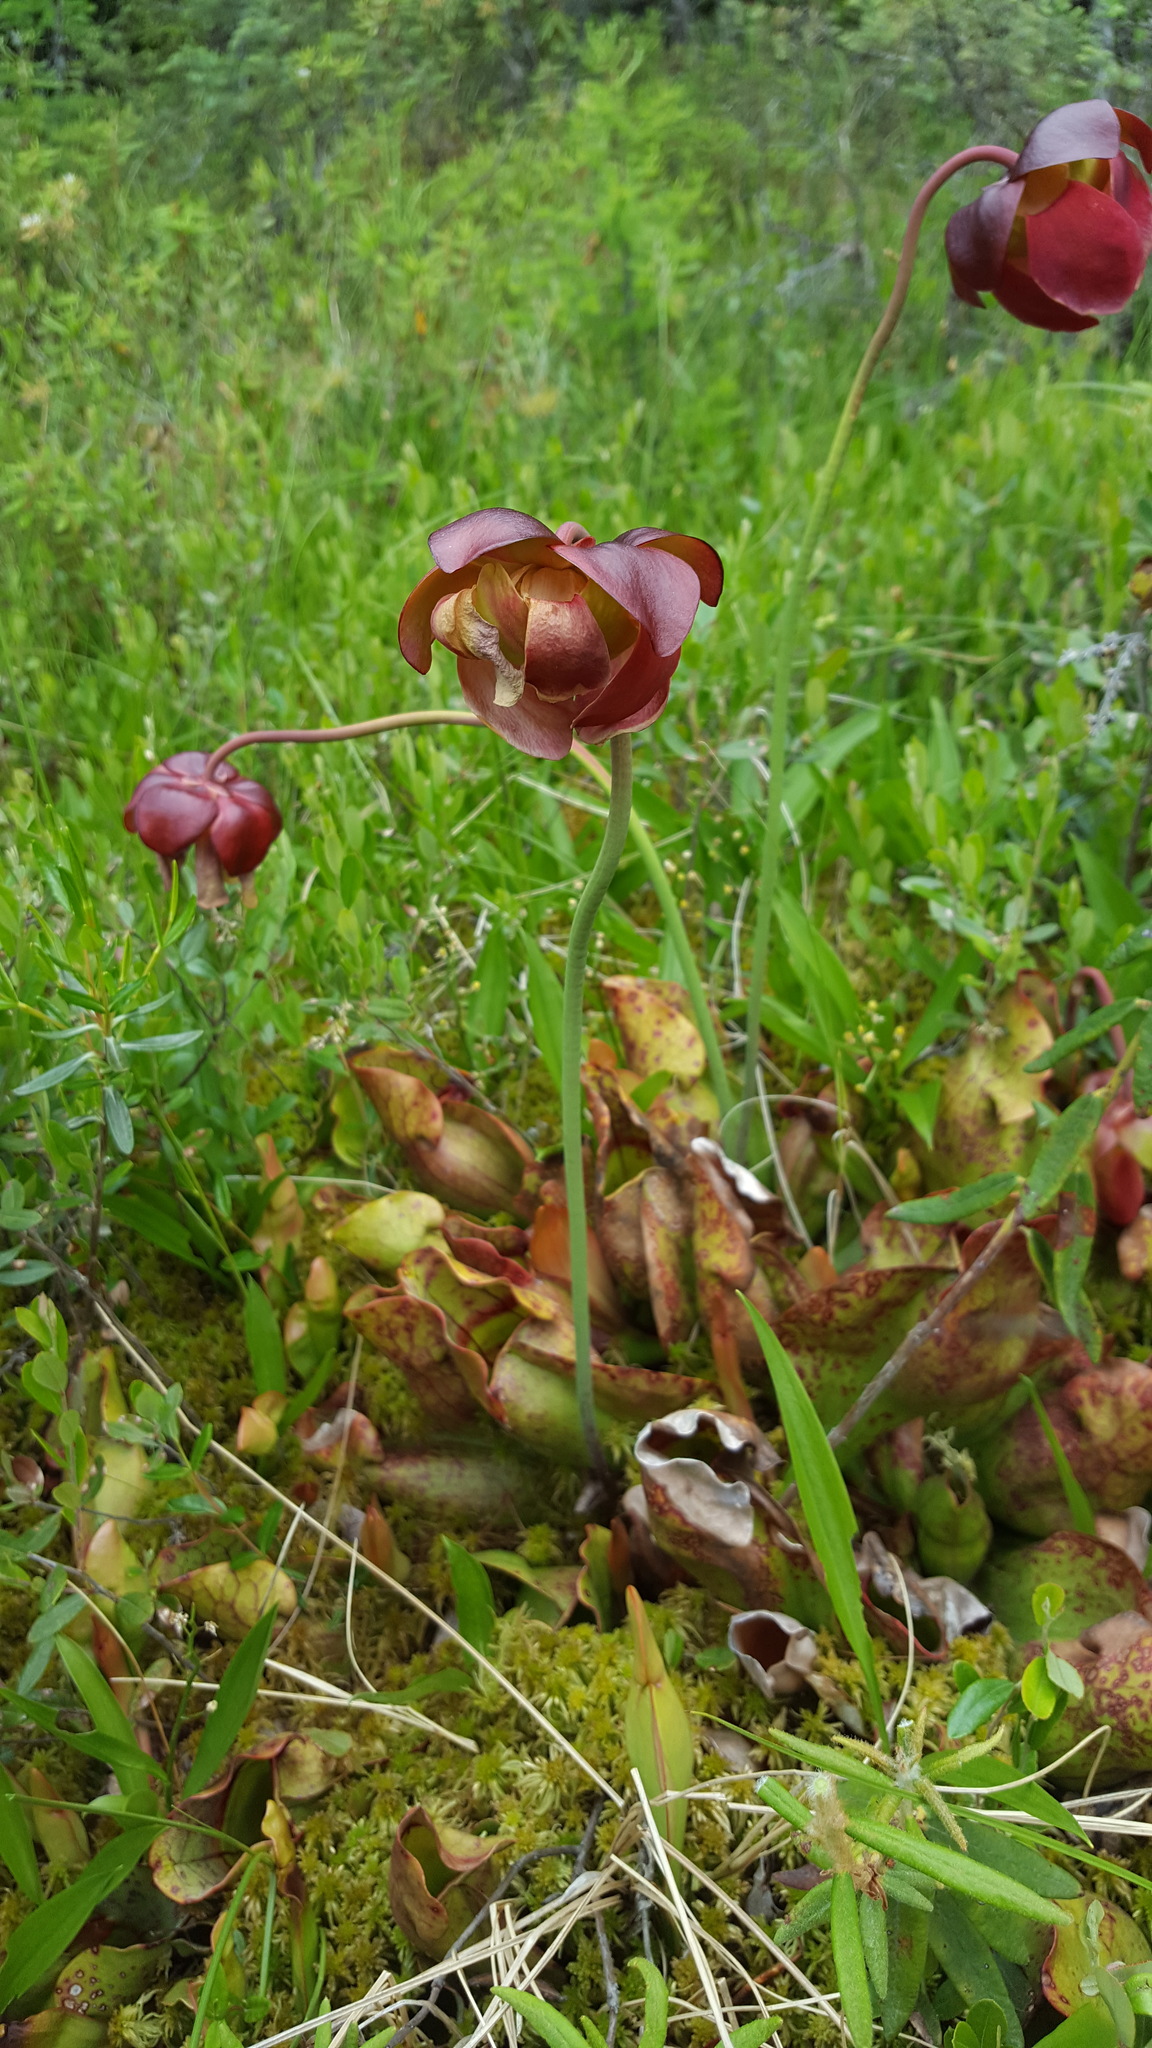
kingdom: Plantae
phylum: Tracheophyta
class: Magnoliopsida
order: Ericales
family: Sarraceniaceae
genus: Sarracenia
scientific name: Sarracenia purpurea
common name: Pitcherplant
